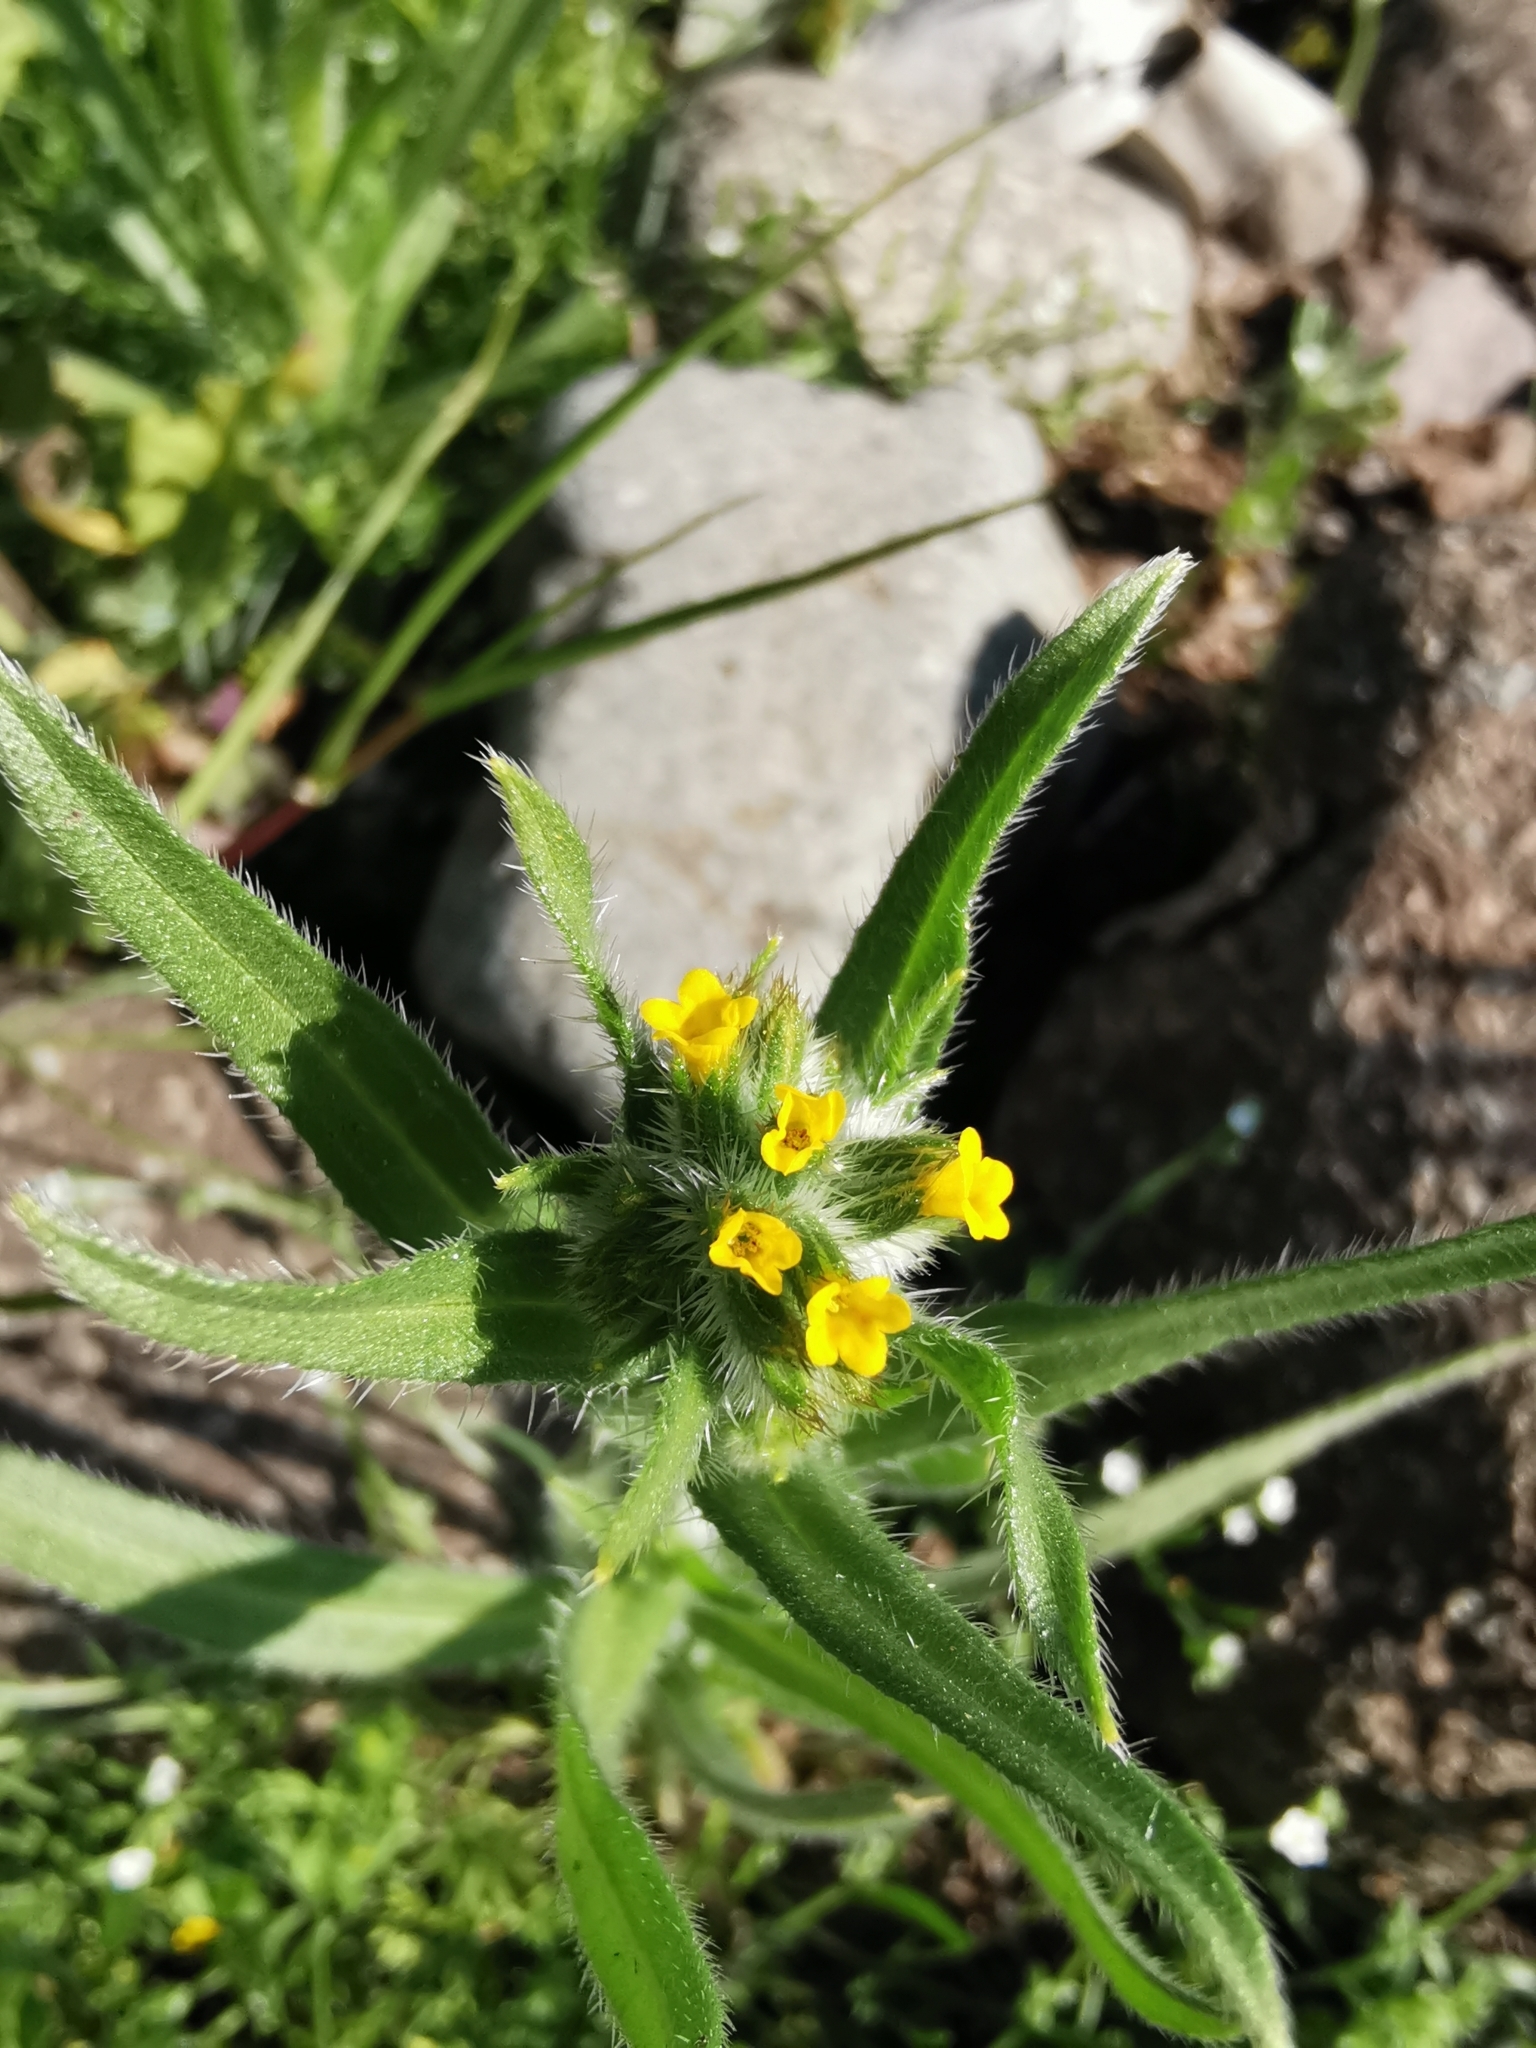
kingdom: Plantae
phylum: Tracheophyta
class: Magnoliopsida
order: Boraginales
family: Boraginaceae
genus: Amsinckia
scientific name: Amsinckia calycina
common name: Hairy fiddleneck
